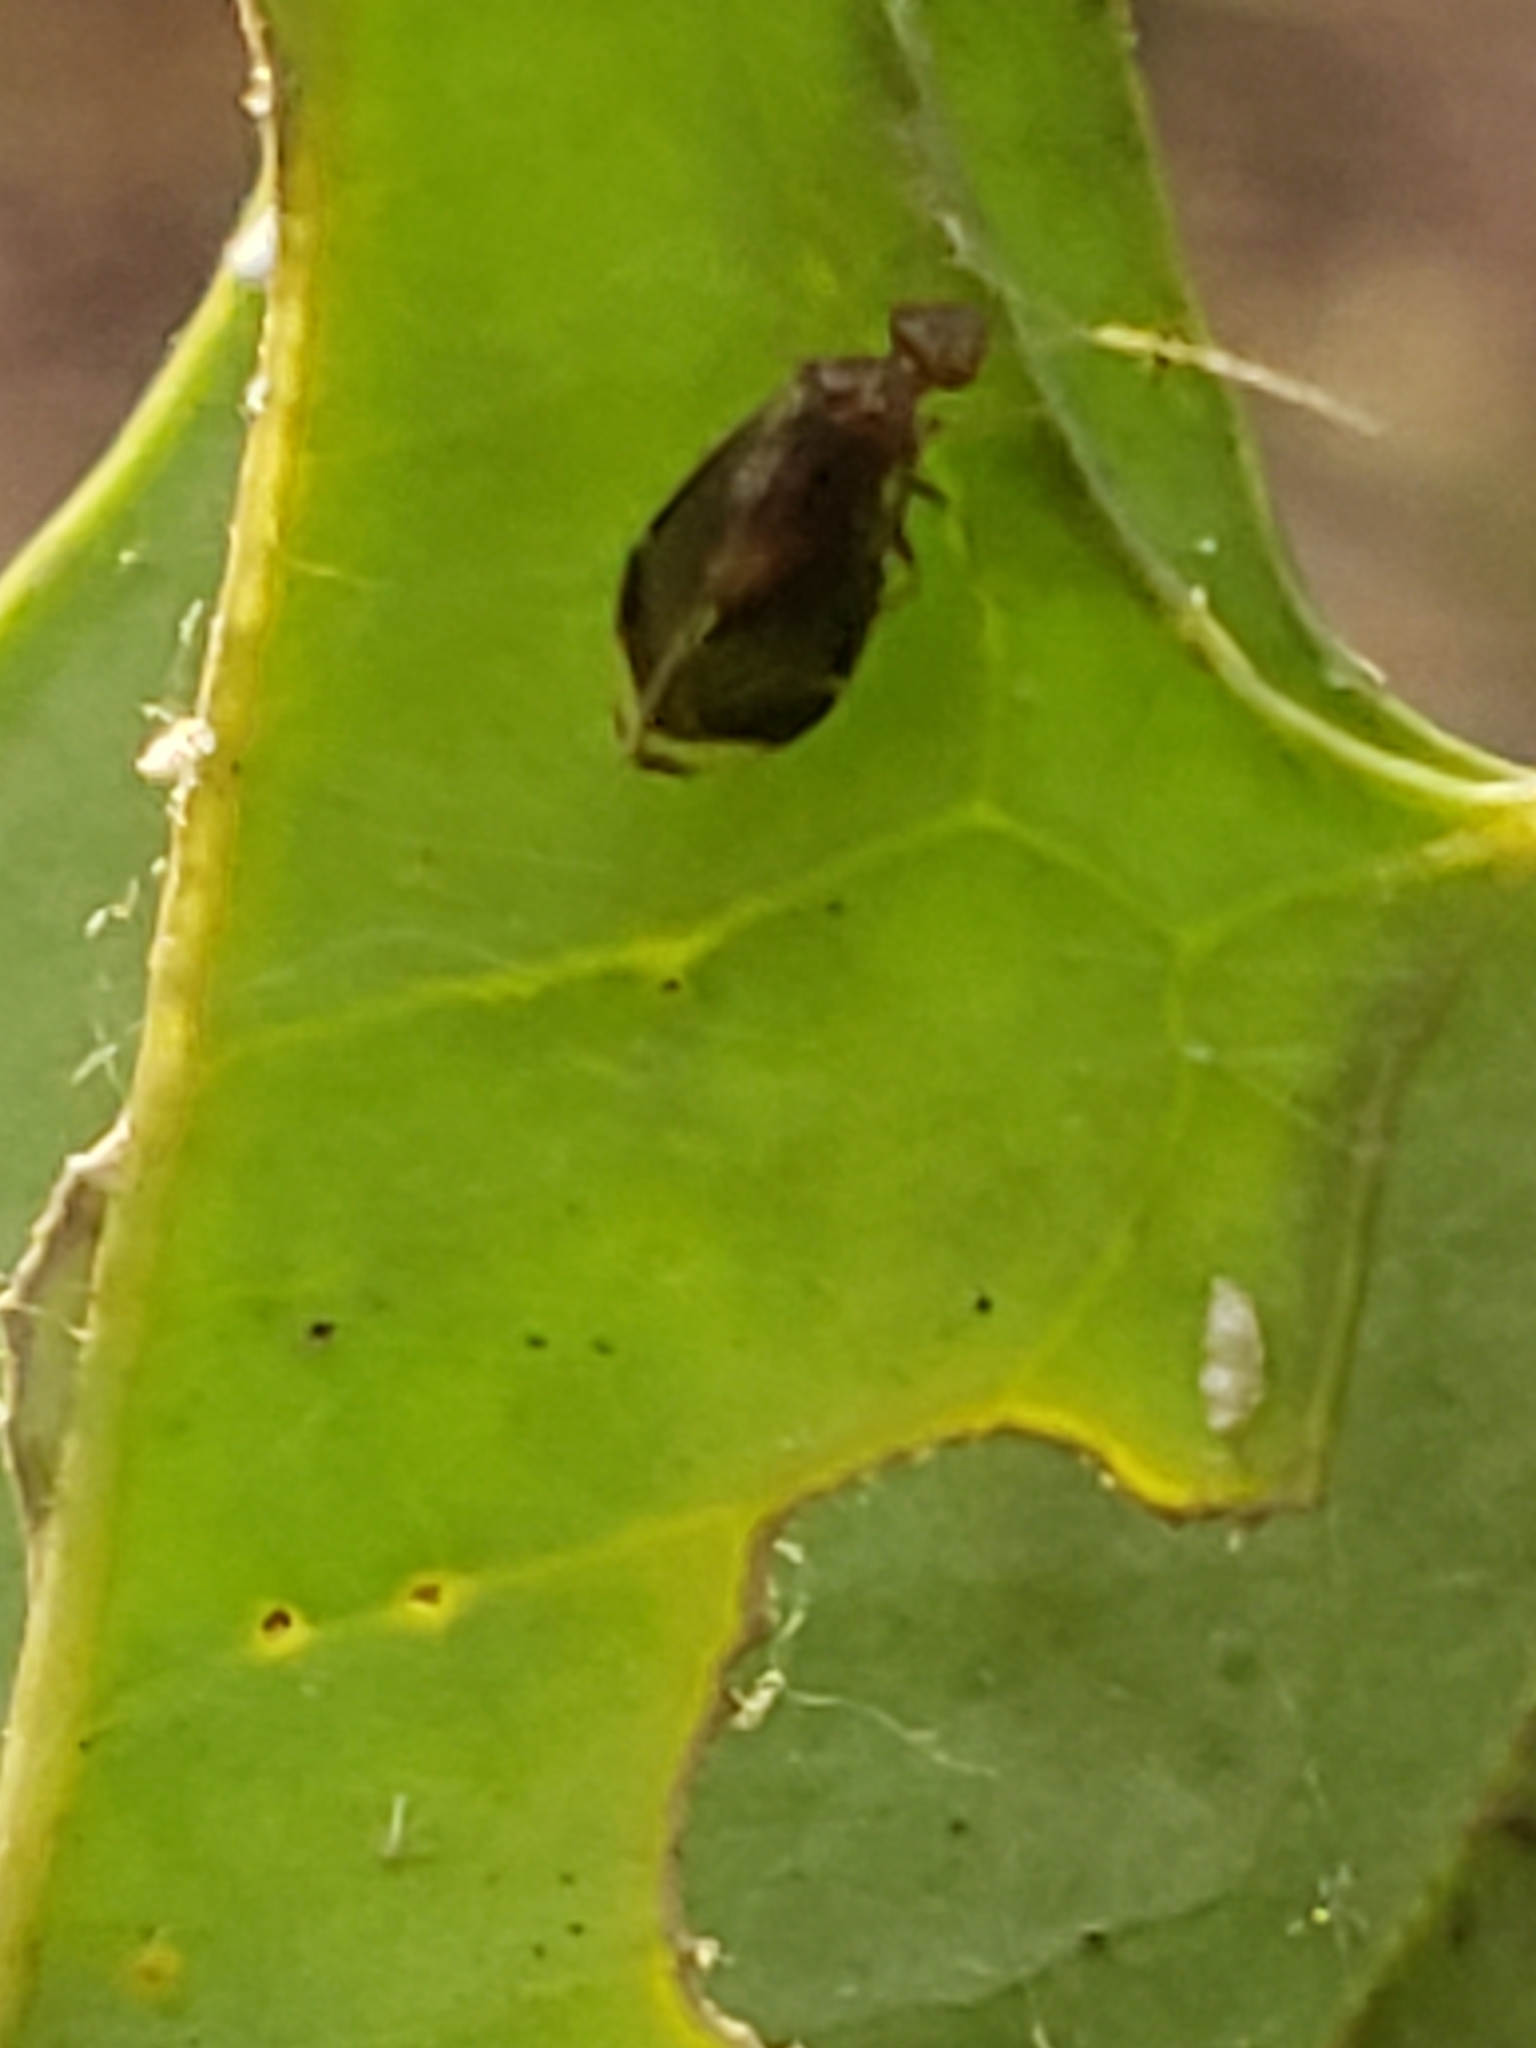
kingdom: Animalia
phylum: Arthropoda
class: Insecta
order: Psocodea
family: Amphipsocidae
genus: Polypsocus
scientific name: Polypsocus corruptus
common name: Corrupt barklouse
